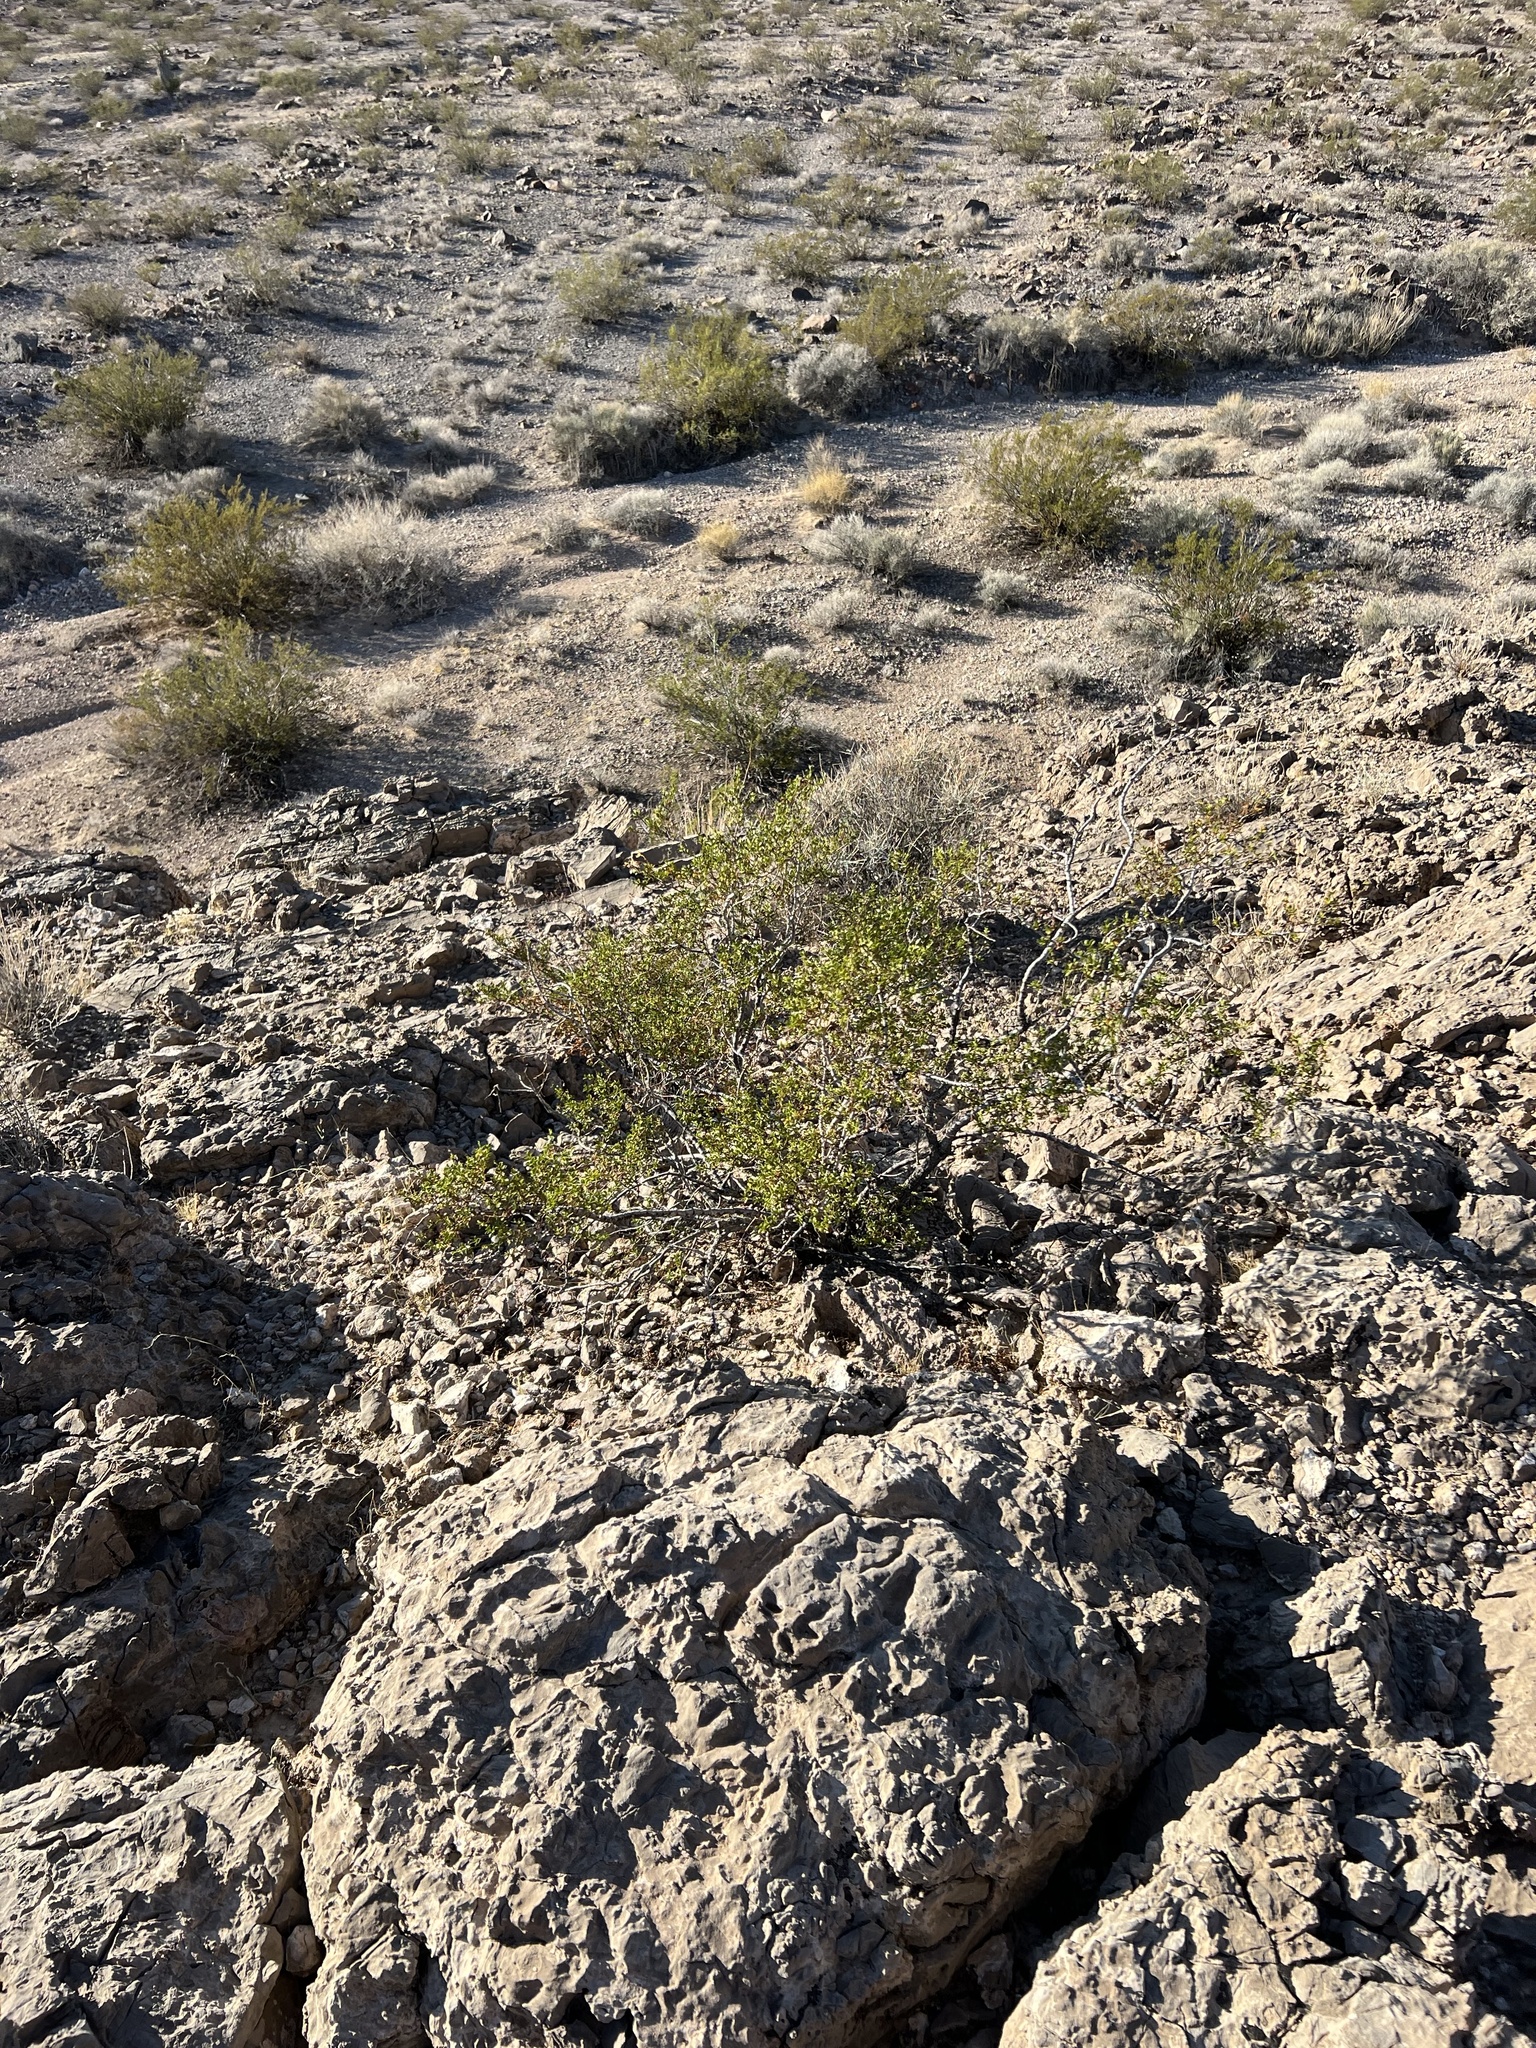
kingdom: Plantae
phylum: Tracheophyta
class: Magnoliopsida
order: Zygophyllales
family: Zygophyllaceae
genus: Larrea
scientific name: Larrea tridentata
